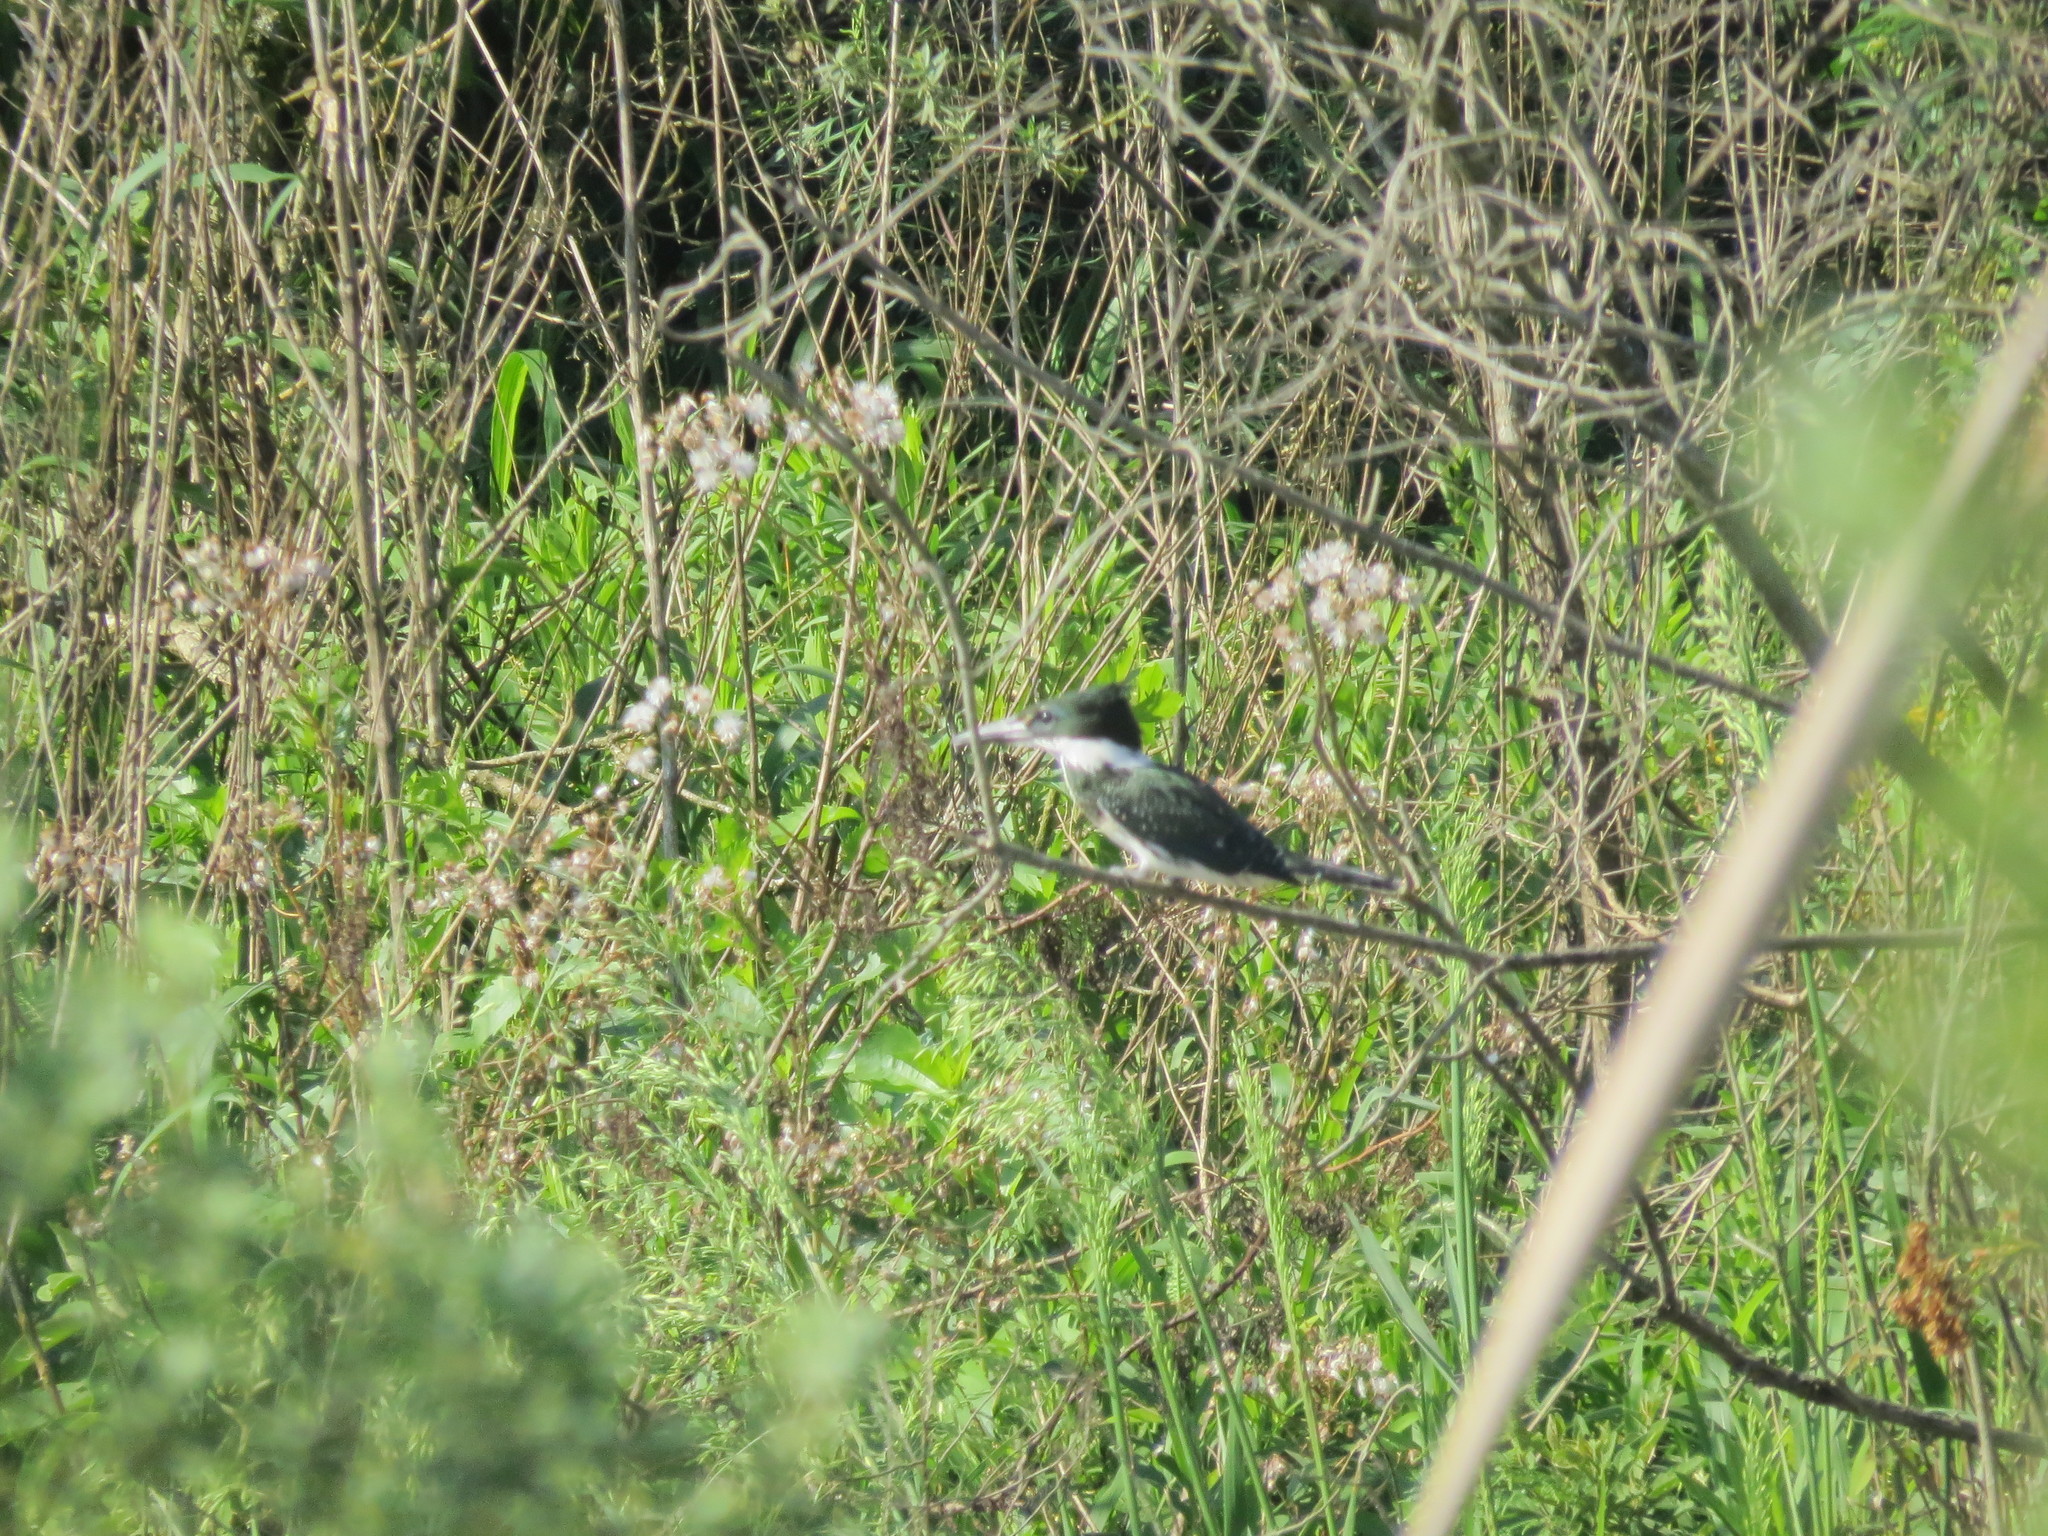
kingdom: Animalia
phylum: Chordata
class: Aves
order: Coraciiformes
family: Alcedinidae
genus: Chloroceryle
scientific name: Chloroceryle amazona
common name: Amazon kingfisher
